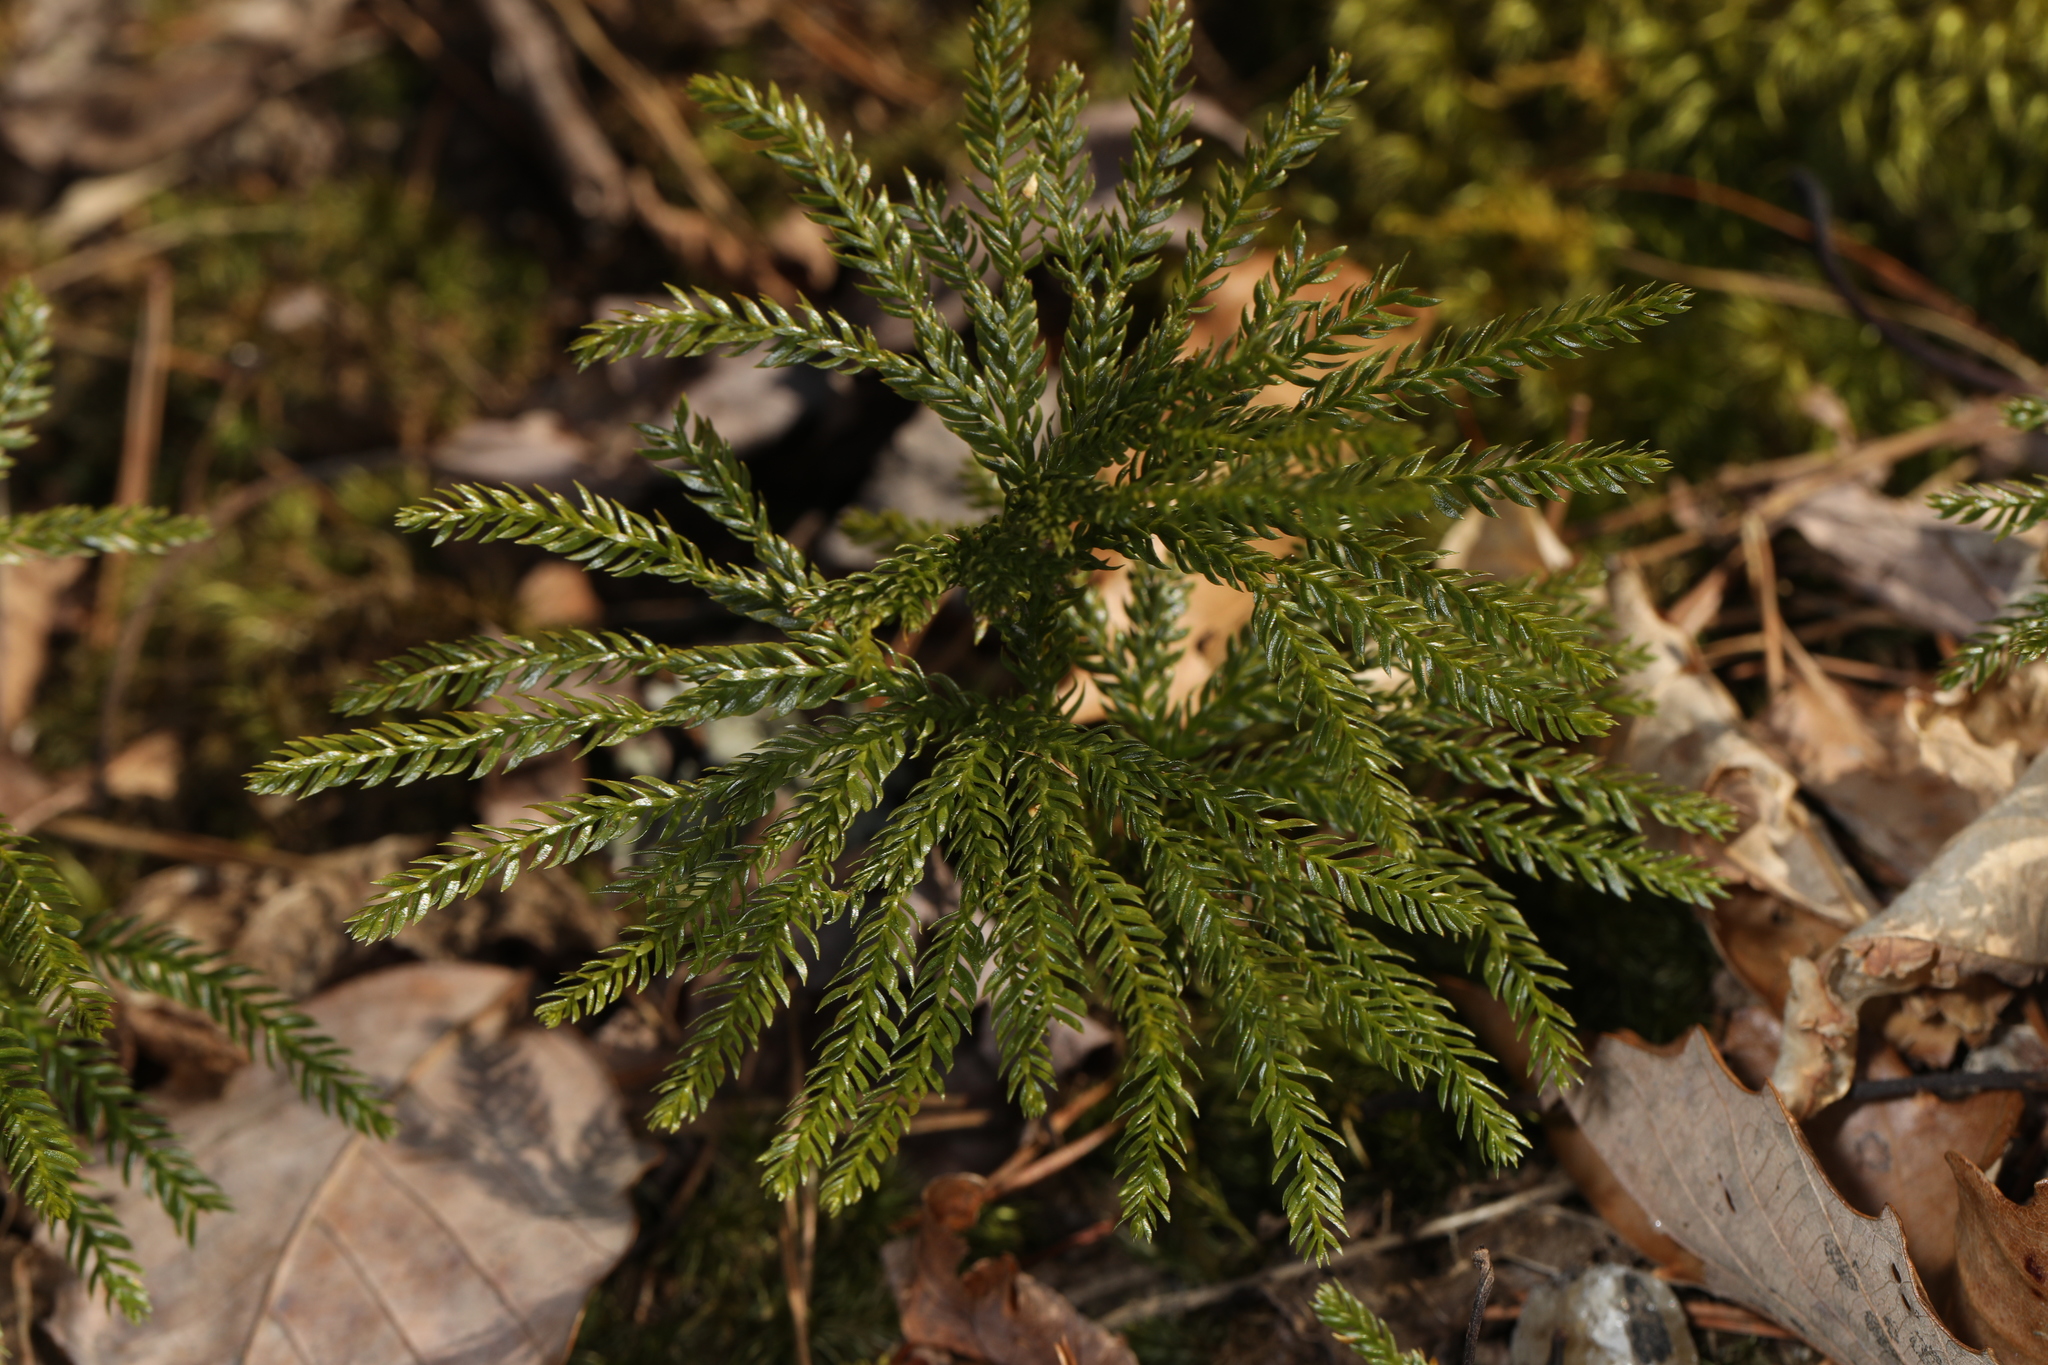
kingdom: Plantae
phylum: Tracheophyta
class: Lycopodiopsida
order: Lycopodiales
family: Lycopodiaceae
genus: Dendrolycopodium
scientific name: Dendrolycopodium obscurum
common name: Common ground-pine
